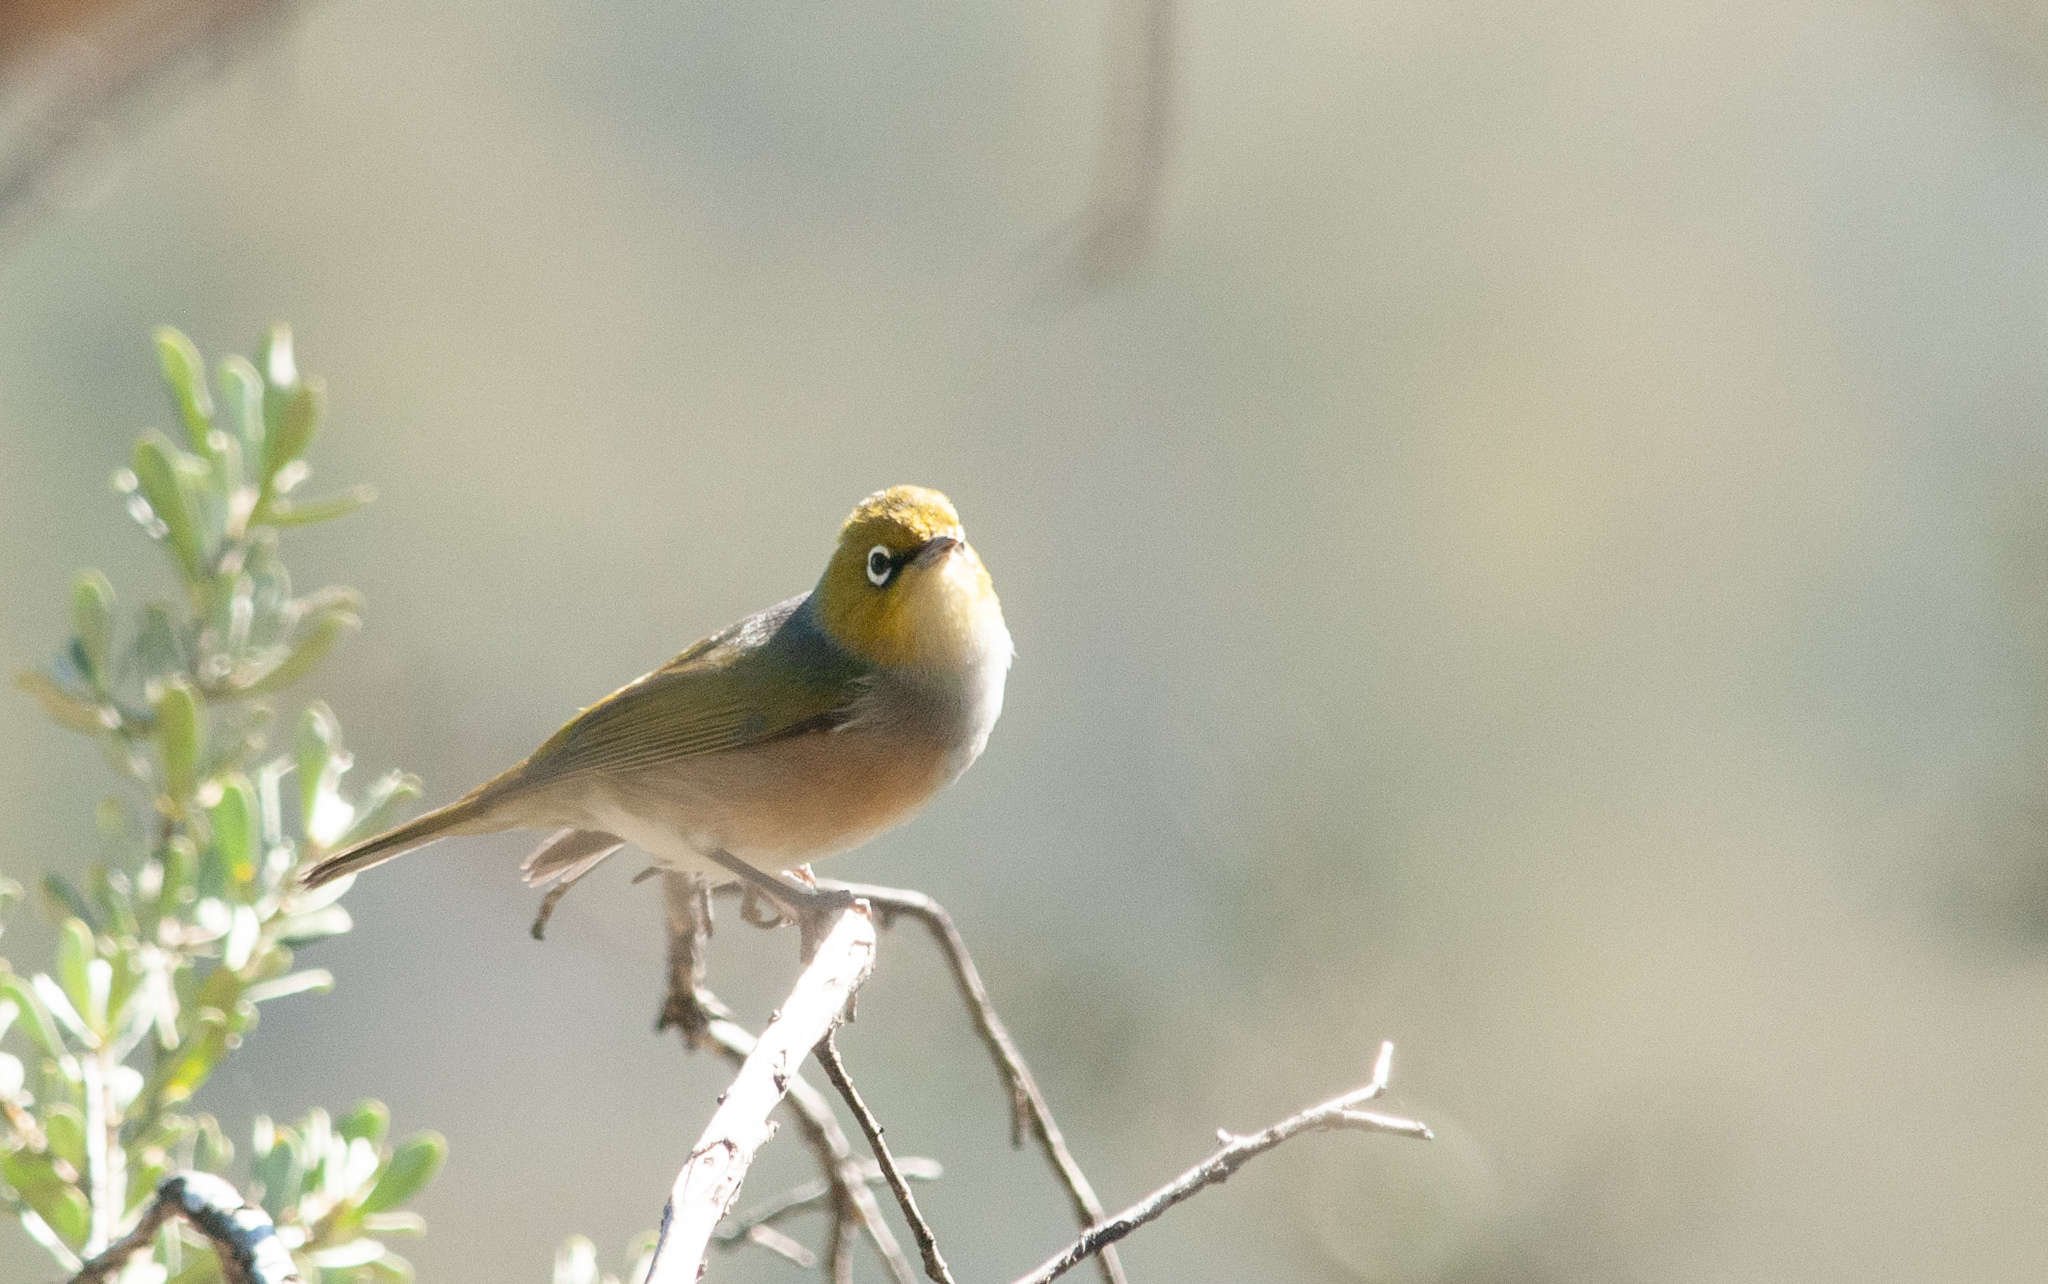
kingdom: Animalia
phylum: Chordata
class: Aves
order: Passeriformes
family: Zosteropidae
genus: Zosterops
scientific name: Zosterops lateralis
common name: Silvereye
